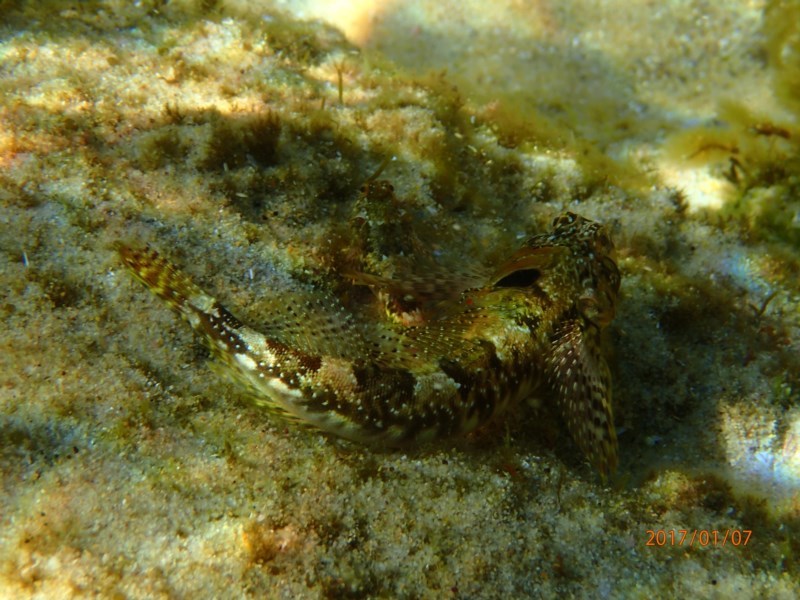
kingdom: Animalia
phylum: Chordata
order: Perciformes
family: Tripterygiidae
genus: Lepidoblennius
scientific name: Lepidoblennius haplodactylus
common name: Eastern jumping blenny
